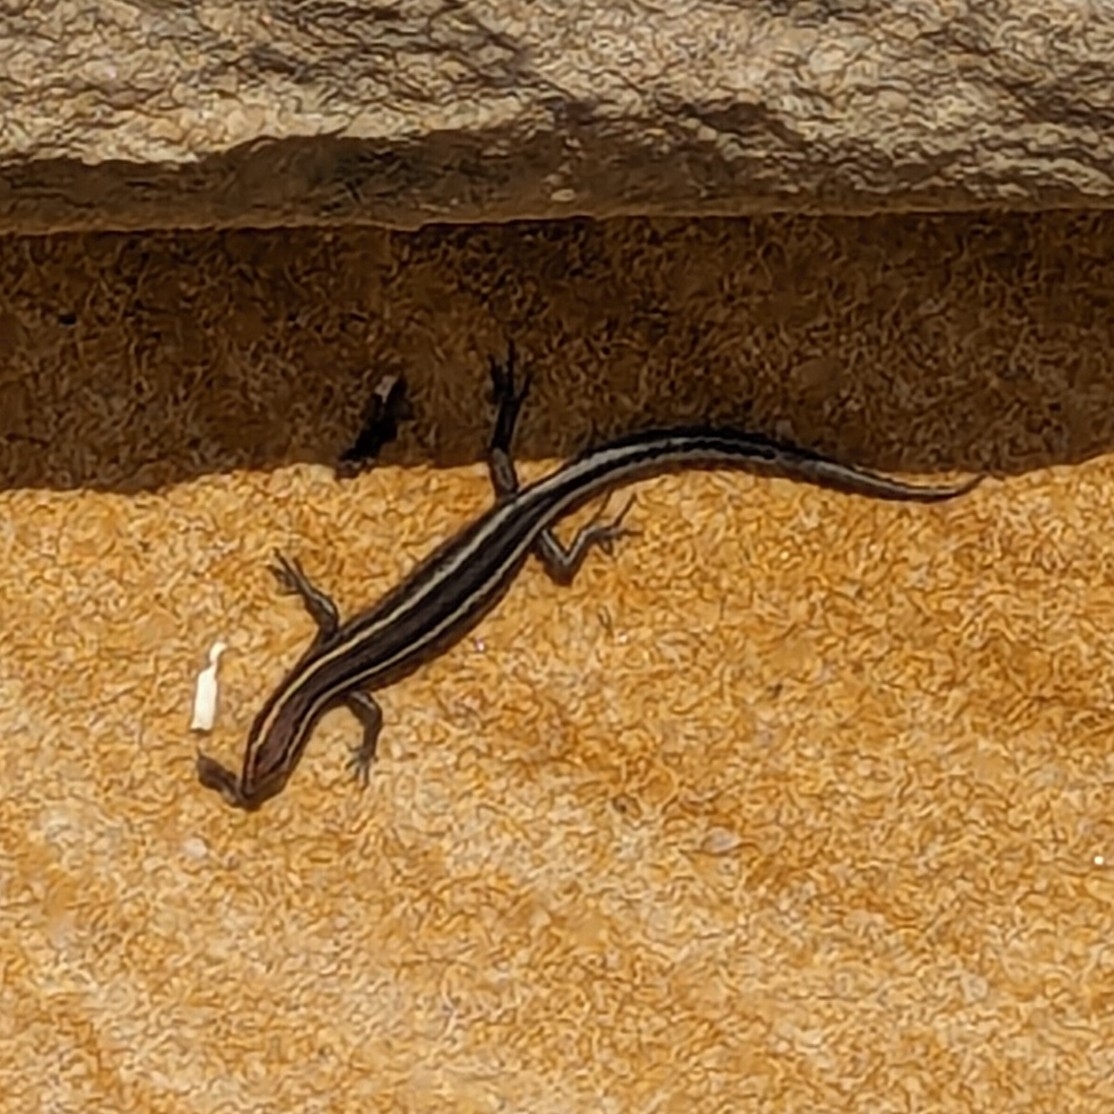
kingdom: Animalia
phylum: Chordata
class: Squamata
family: Scincidae
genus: Cryptoblepharus
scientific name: Cryptoblepharus pulcher
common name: Elegant snake-eyed skink
